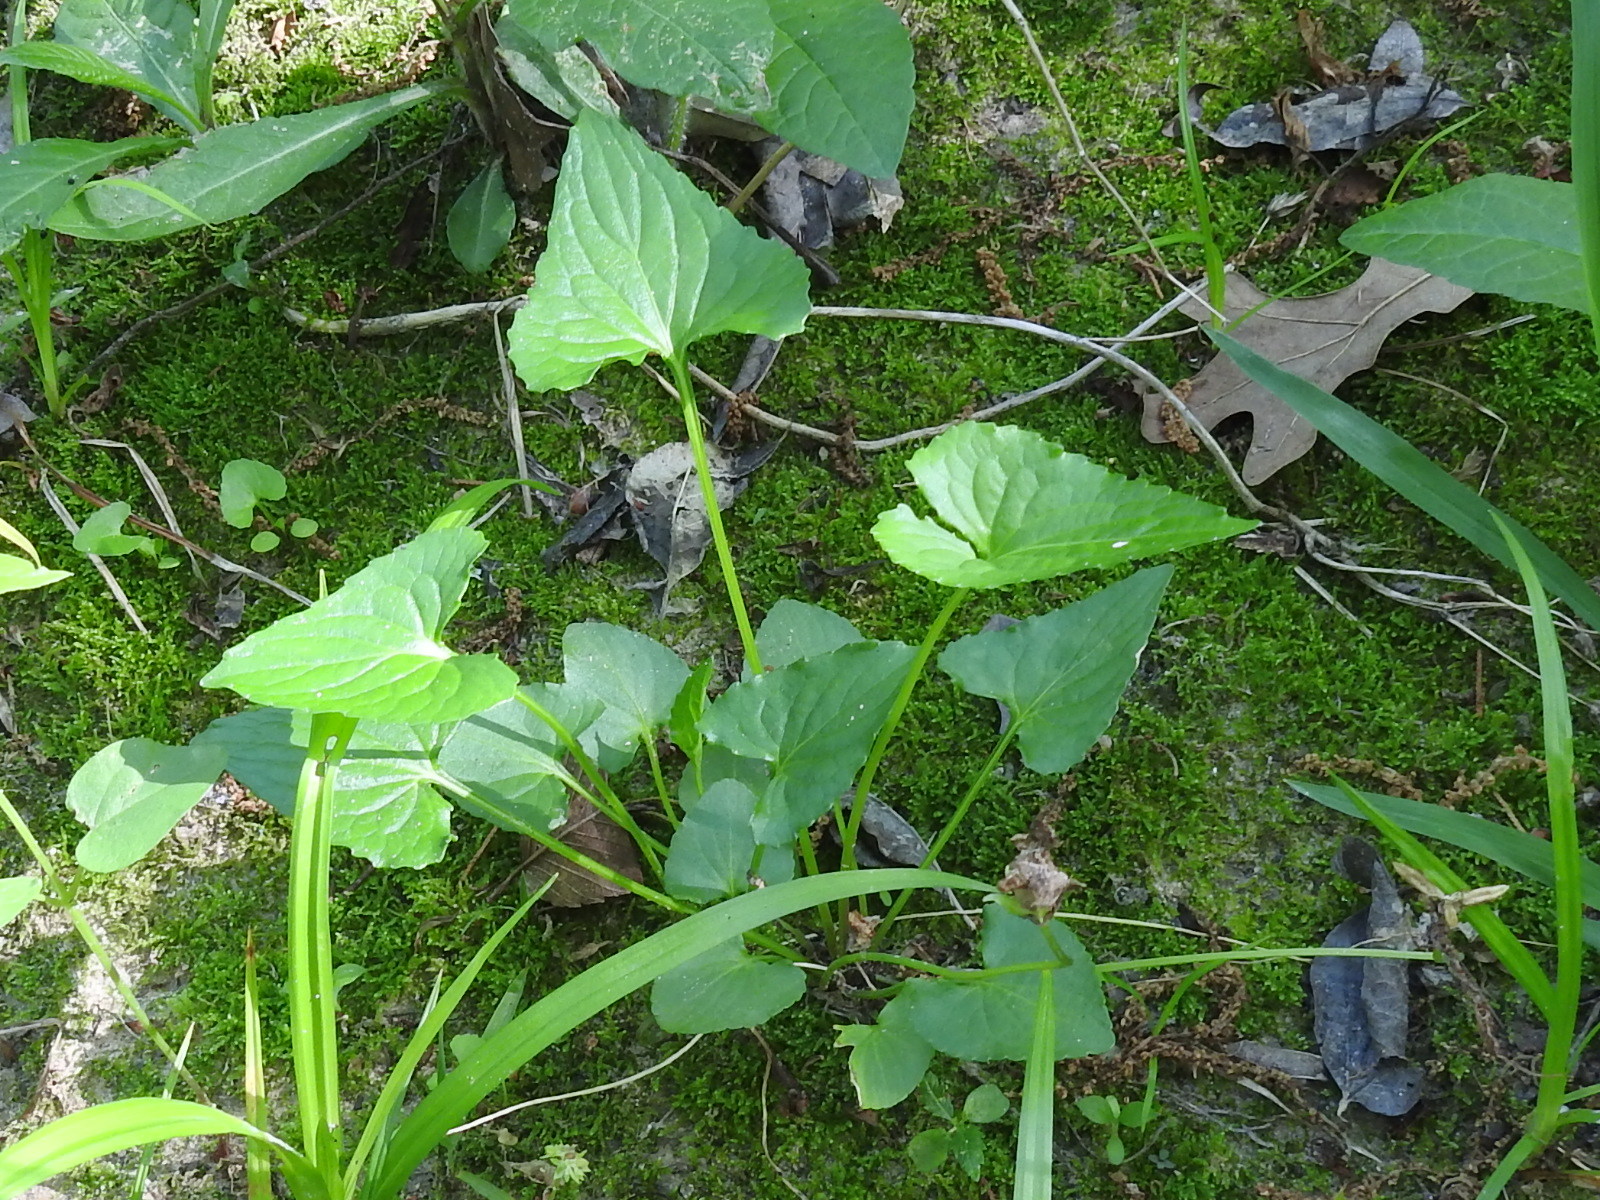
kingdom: Plantae
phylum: Tracheophyta
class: Magnoliopsida
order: Malpighiales
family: Violaceae
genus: Viola
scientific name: Viola sororia
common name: Dooryard violet
